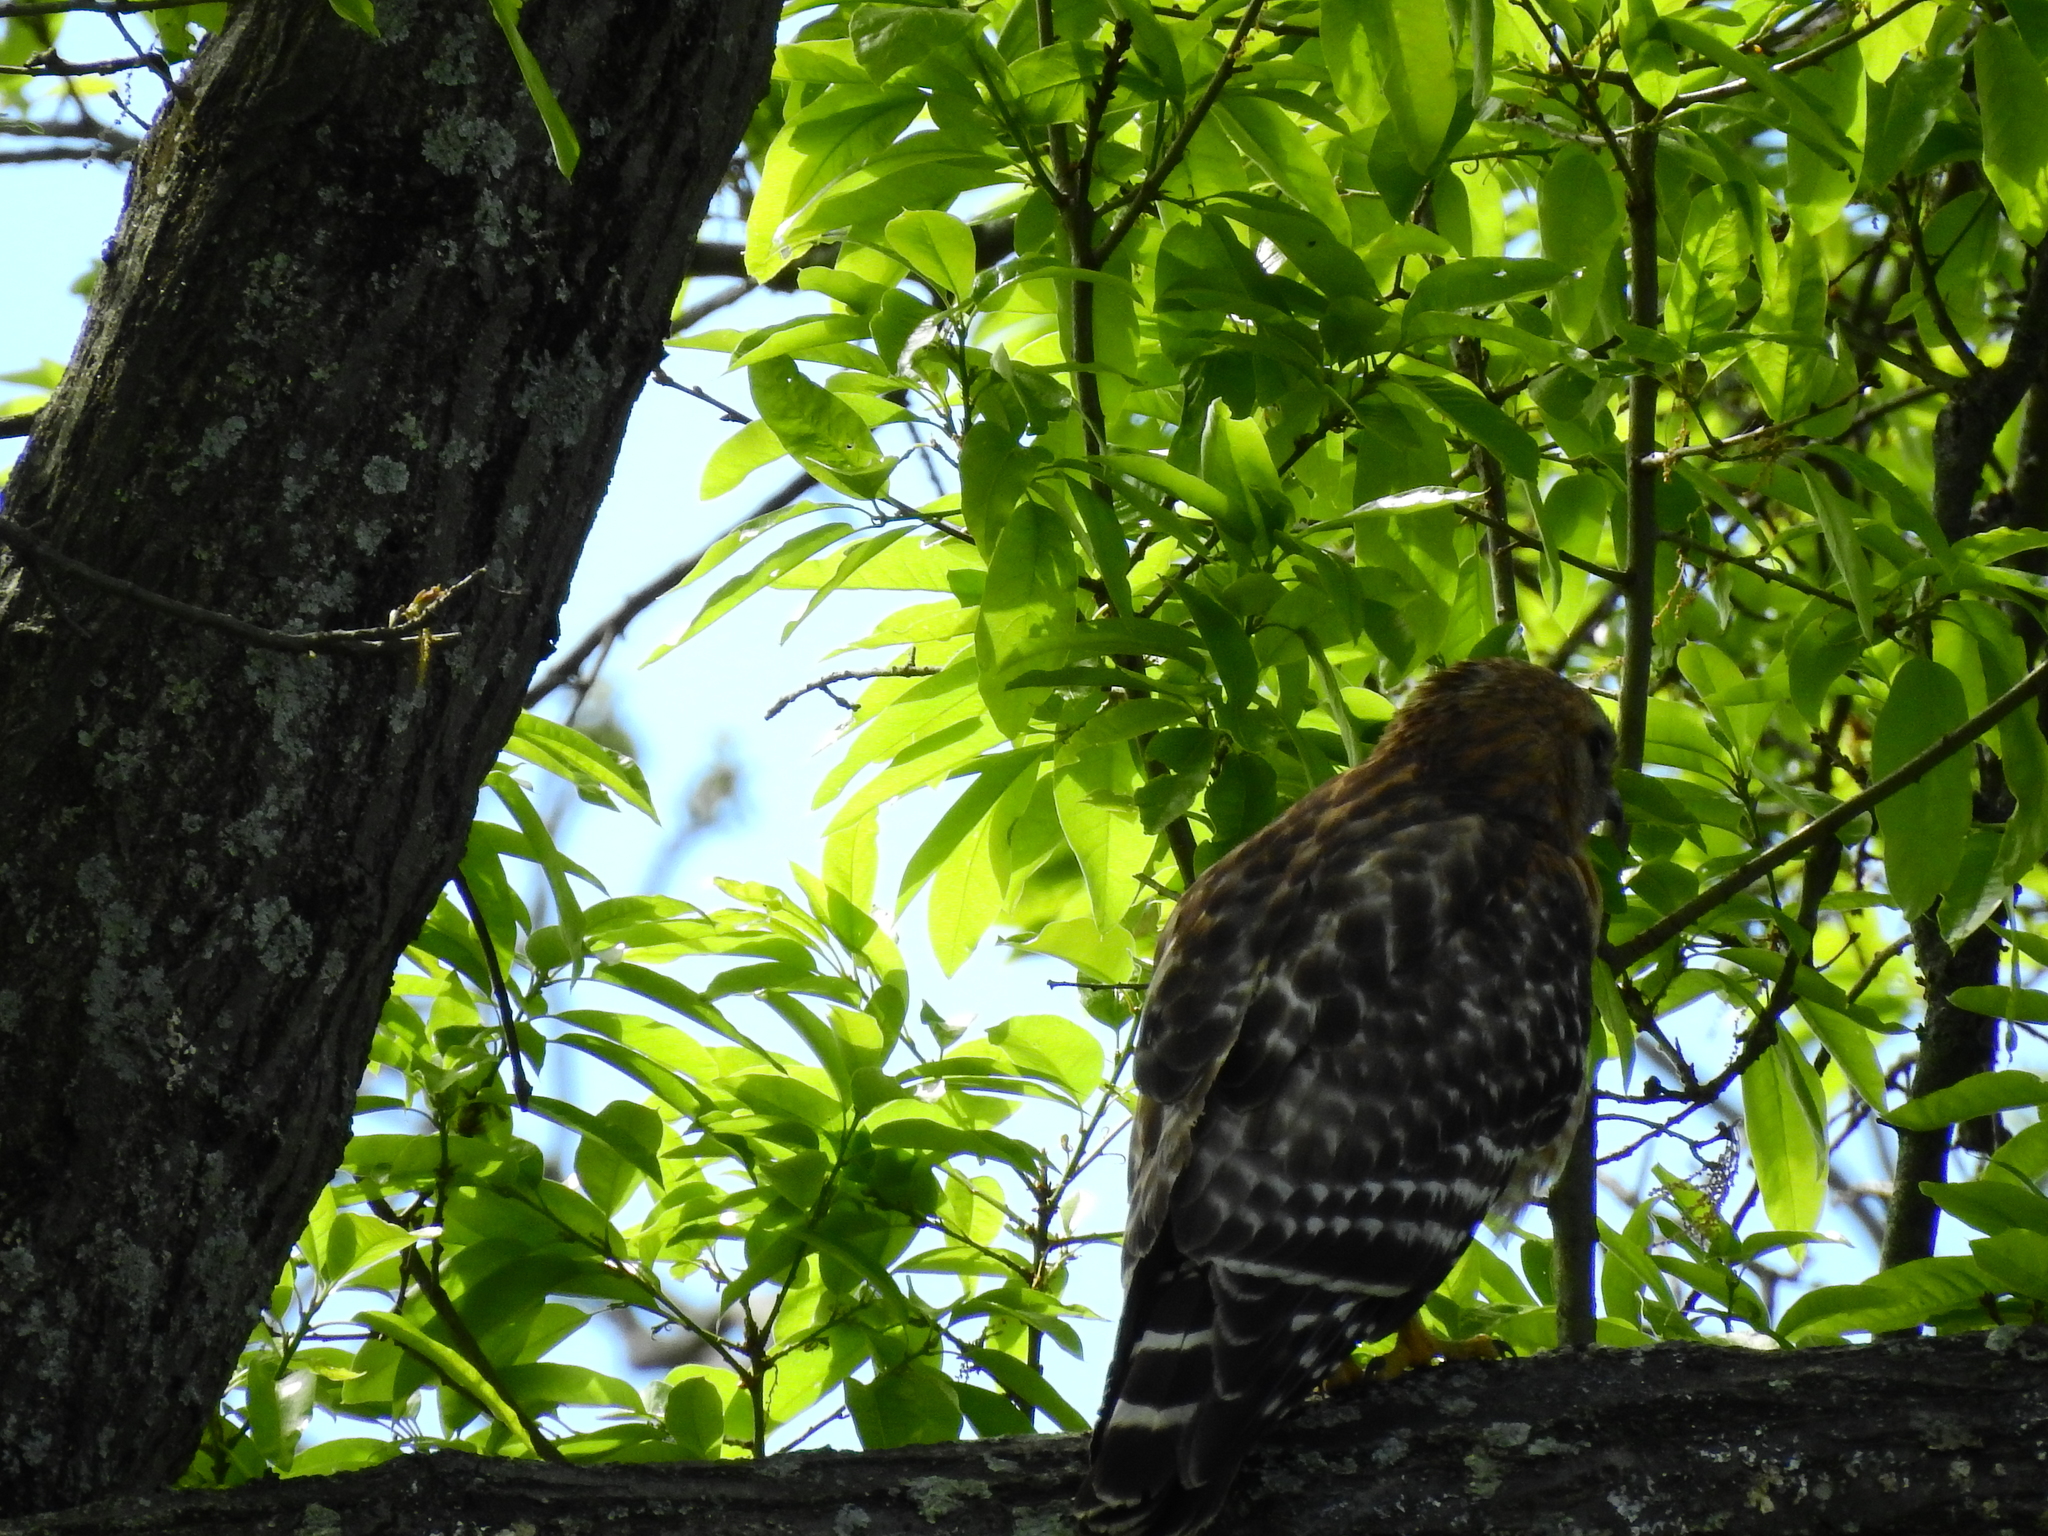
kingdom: Animalia
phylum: Chordata
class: Aves
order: Accipitriformes
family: Accipitridae
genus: Buteo
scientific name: Buteo lineatus
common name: Red-shouldered hawk
